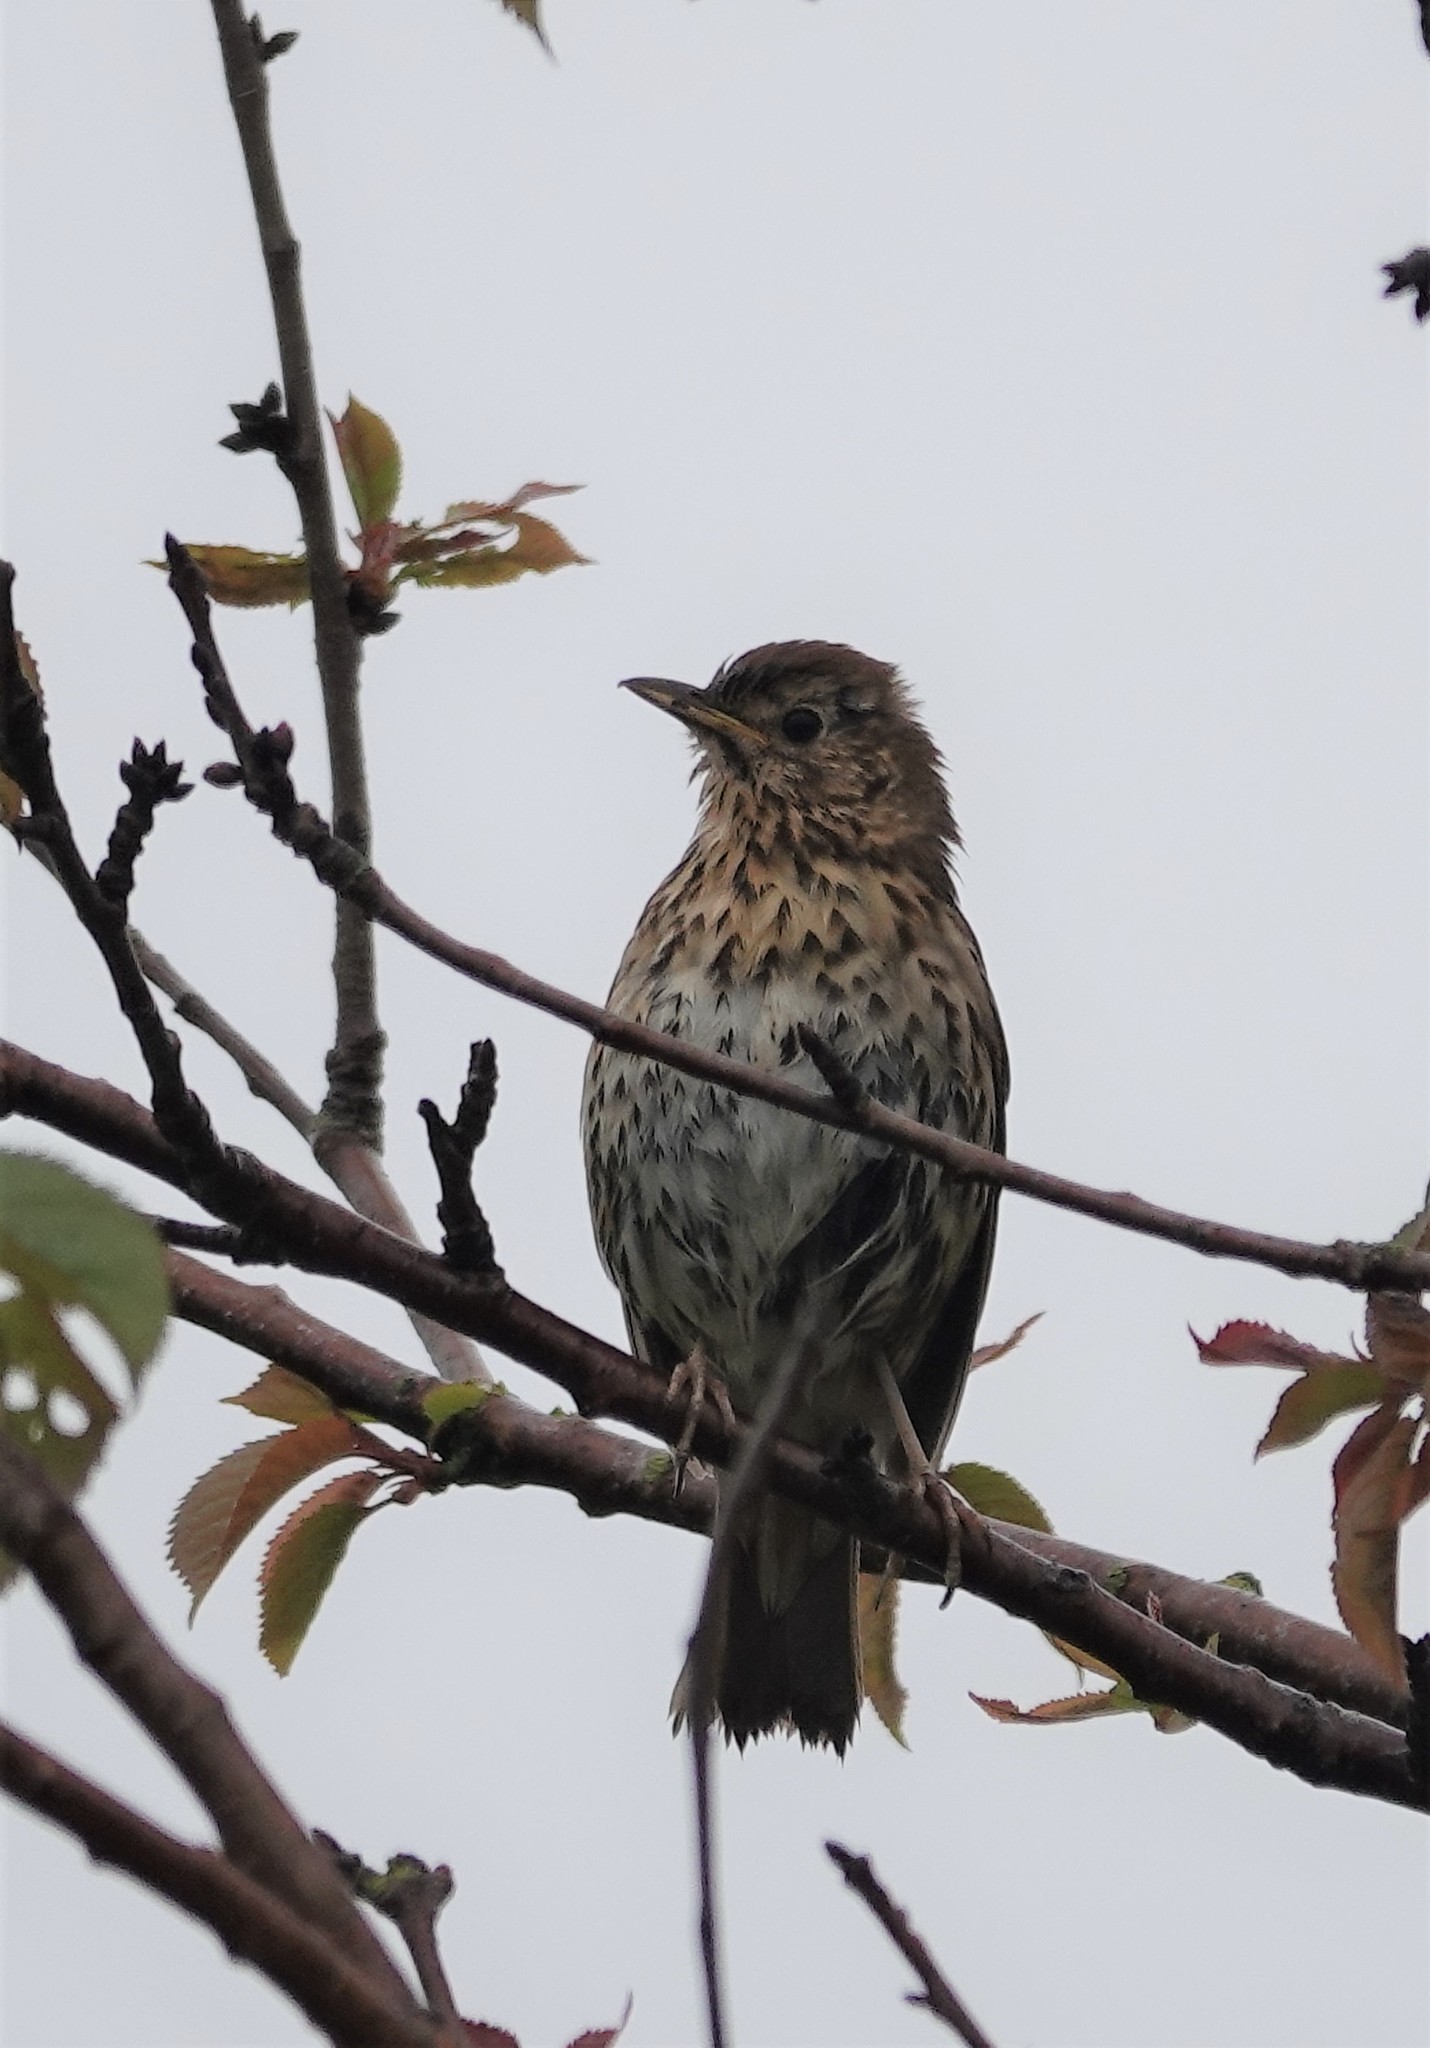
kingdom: Animalia
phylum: Chordata
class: Aves
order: Passeriformes
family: Turdidae
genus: Turdus
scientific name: Turdus philomelos
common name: Song thrush
